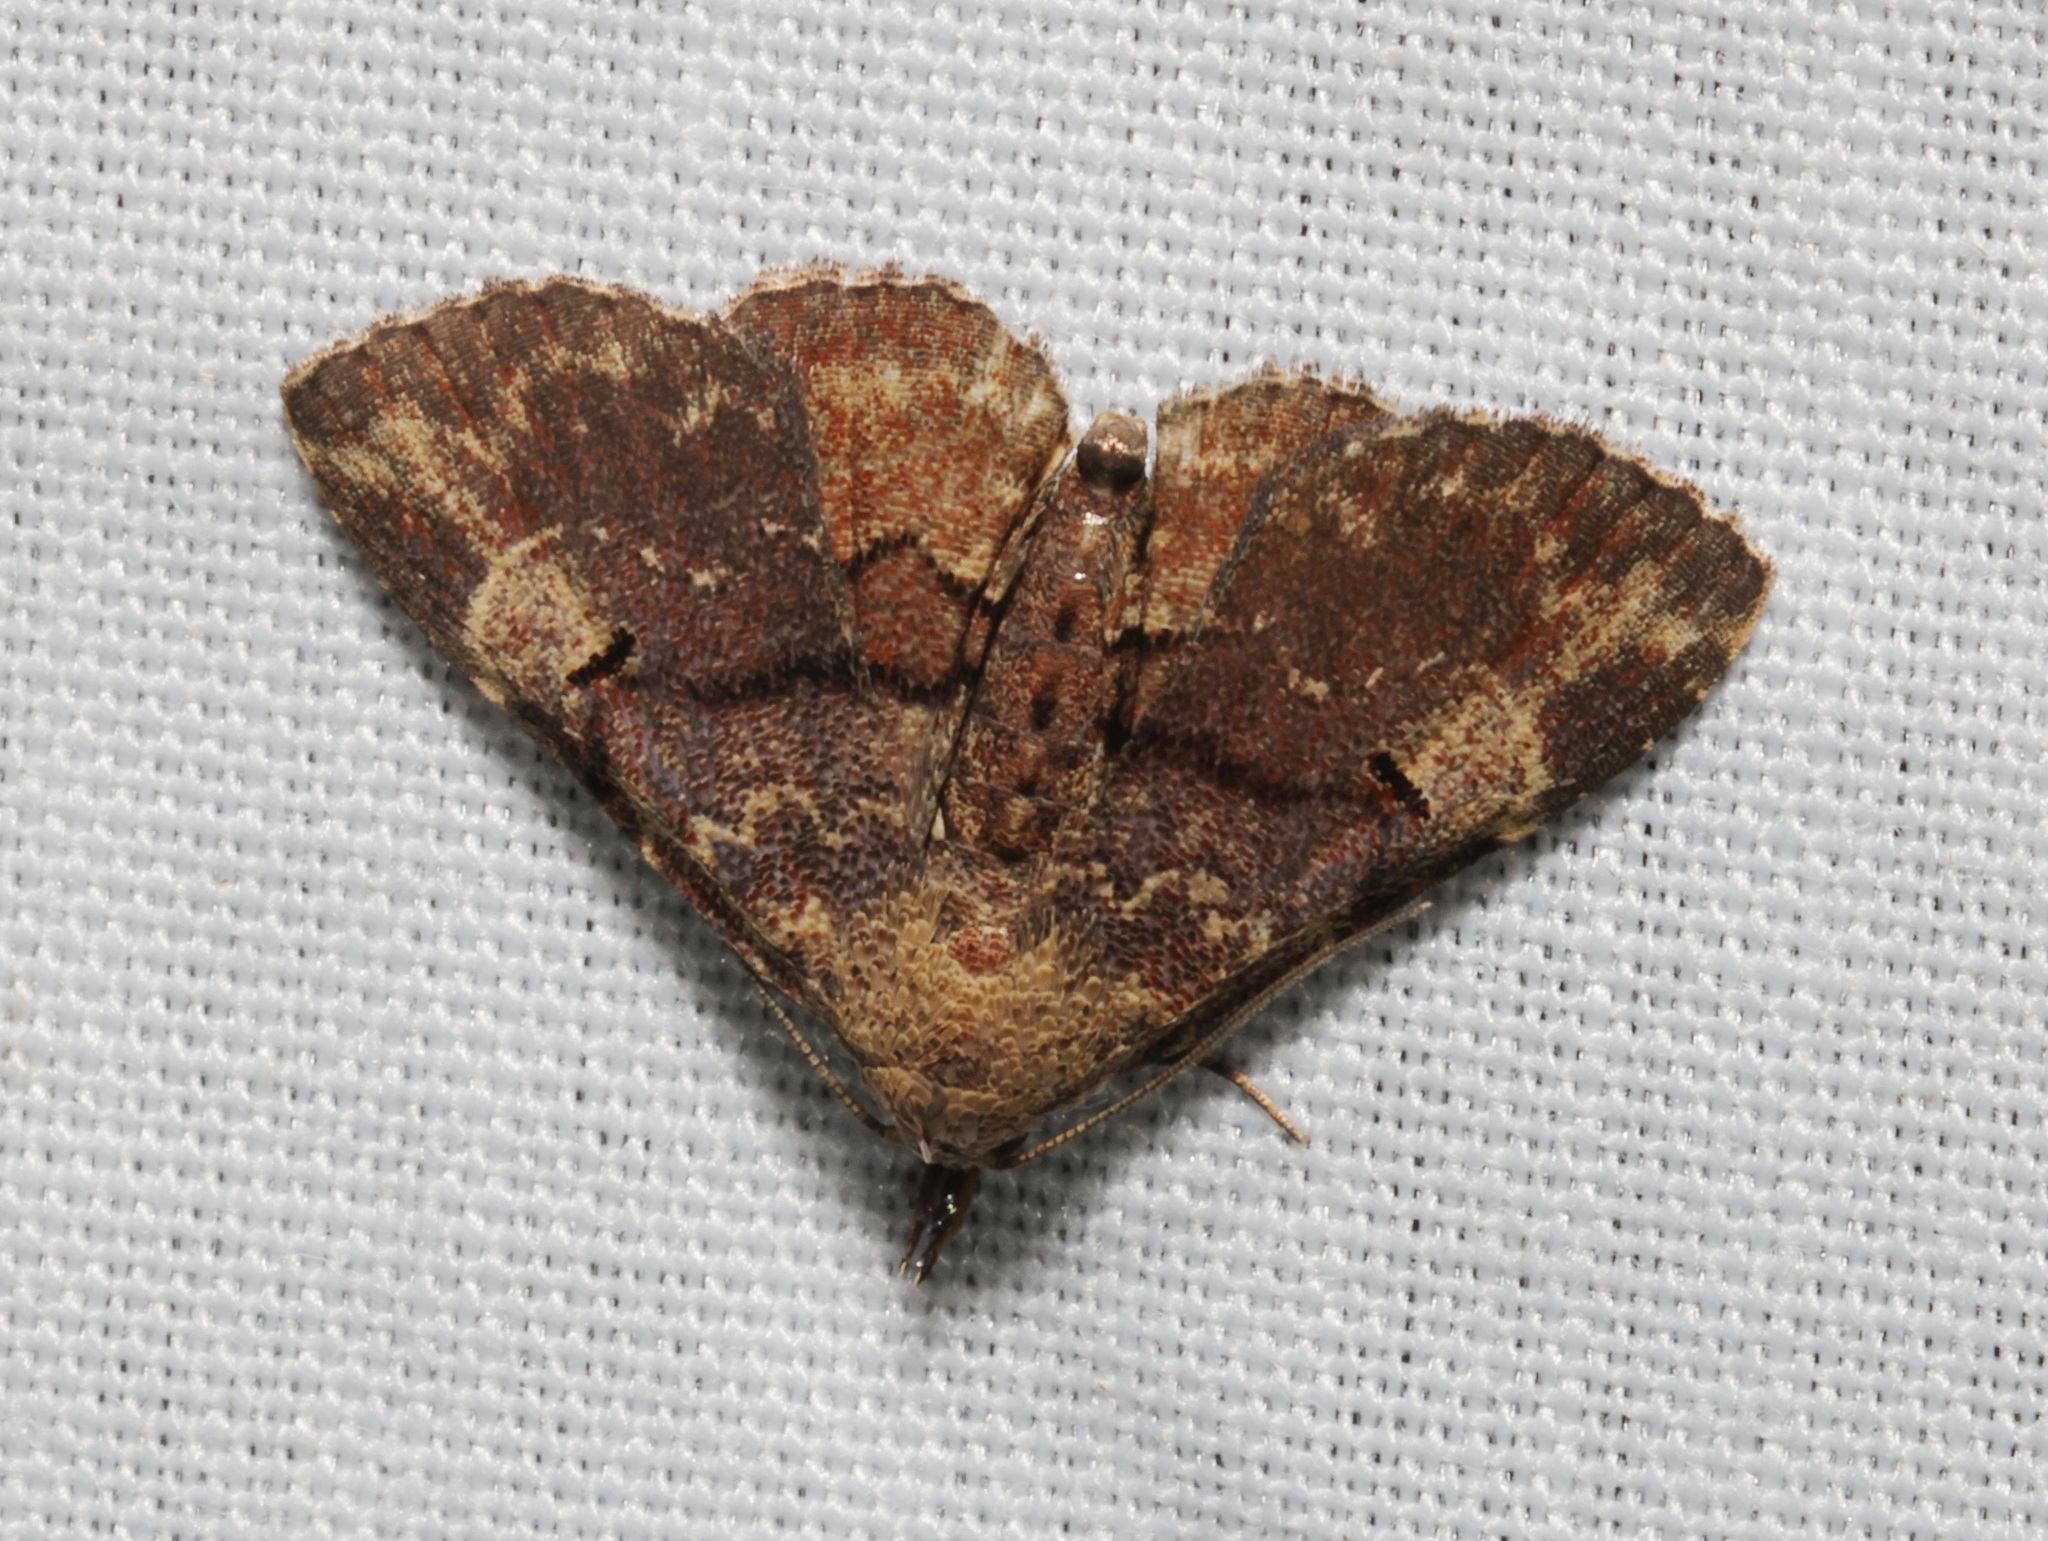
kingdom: Animalia
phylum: Arthropoda
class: Insecta
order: Lepidoptera
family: Erebidae
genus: Maguda
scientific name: Maguda suffusa
